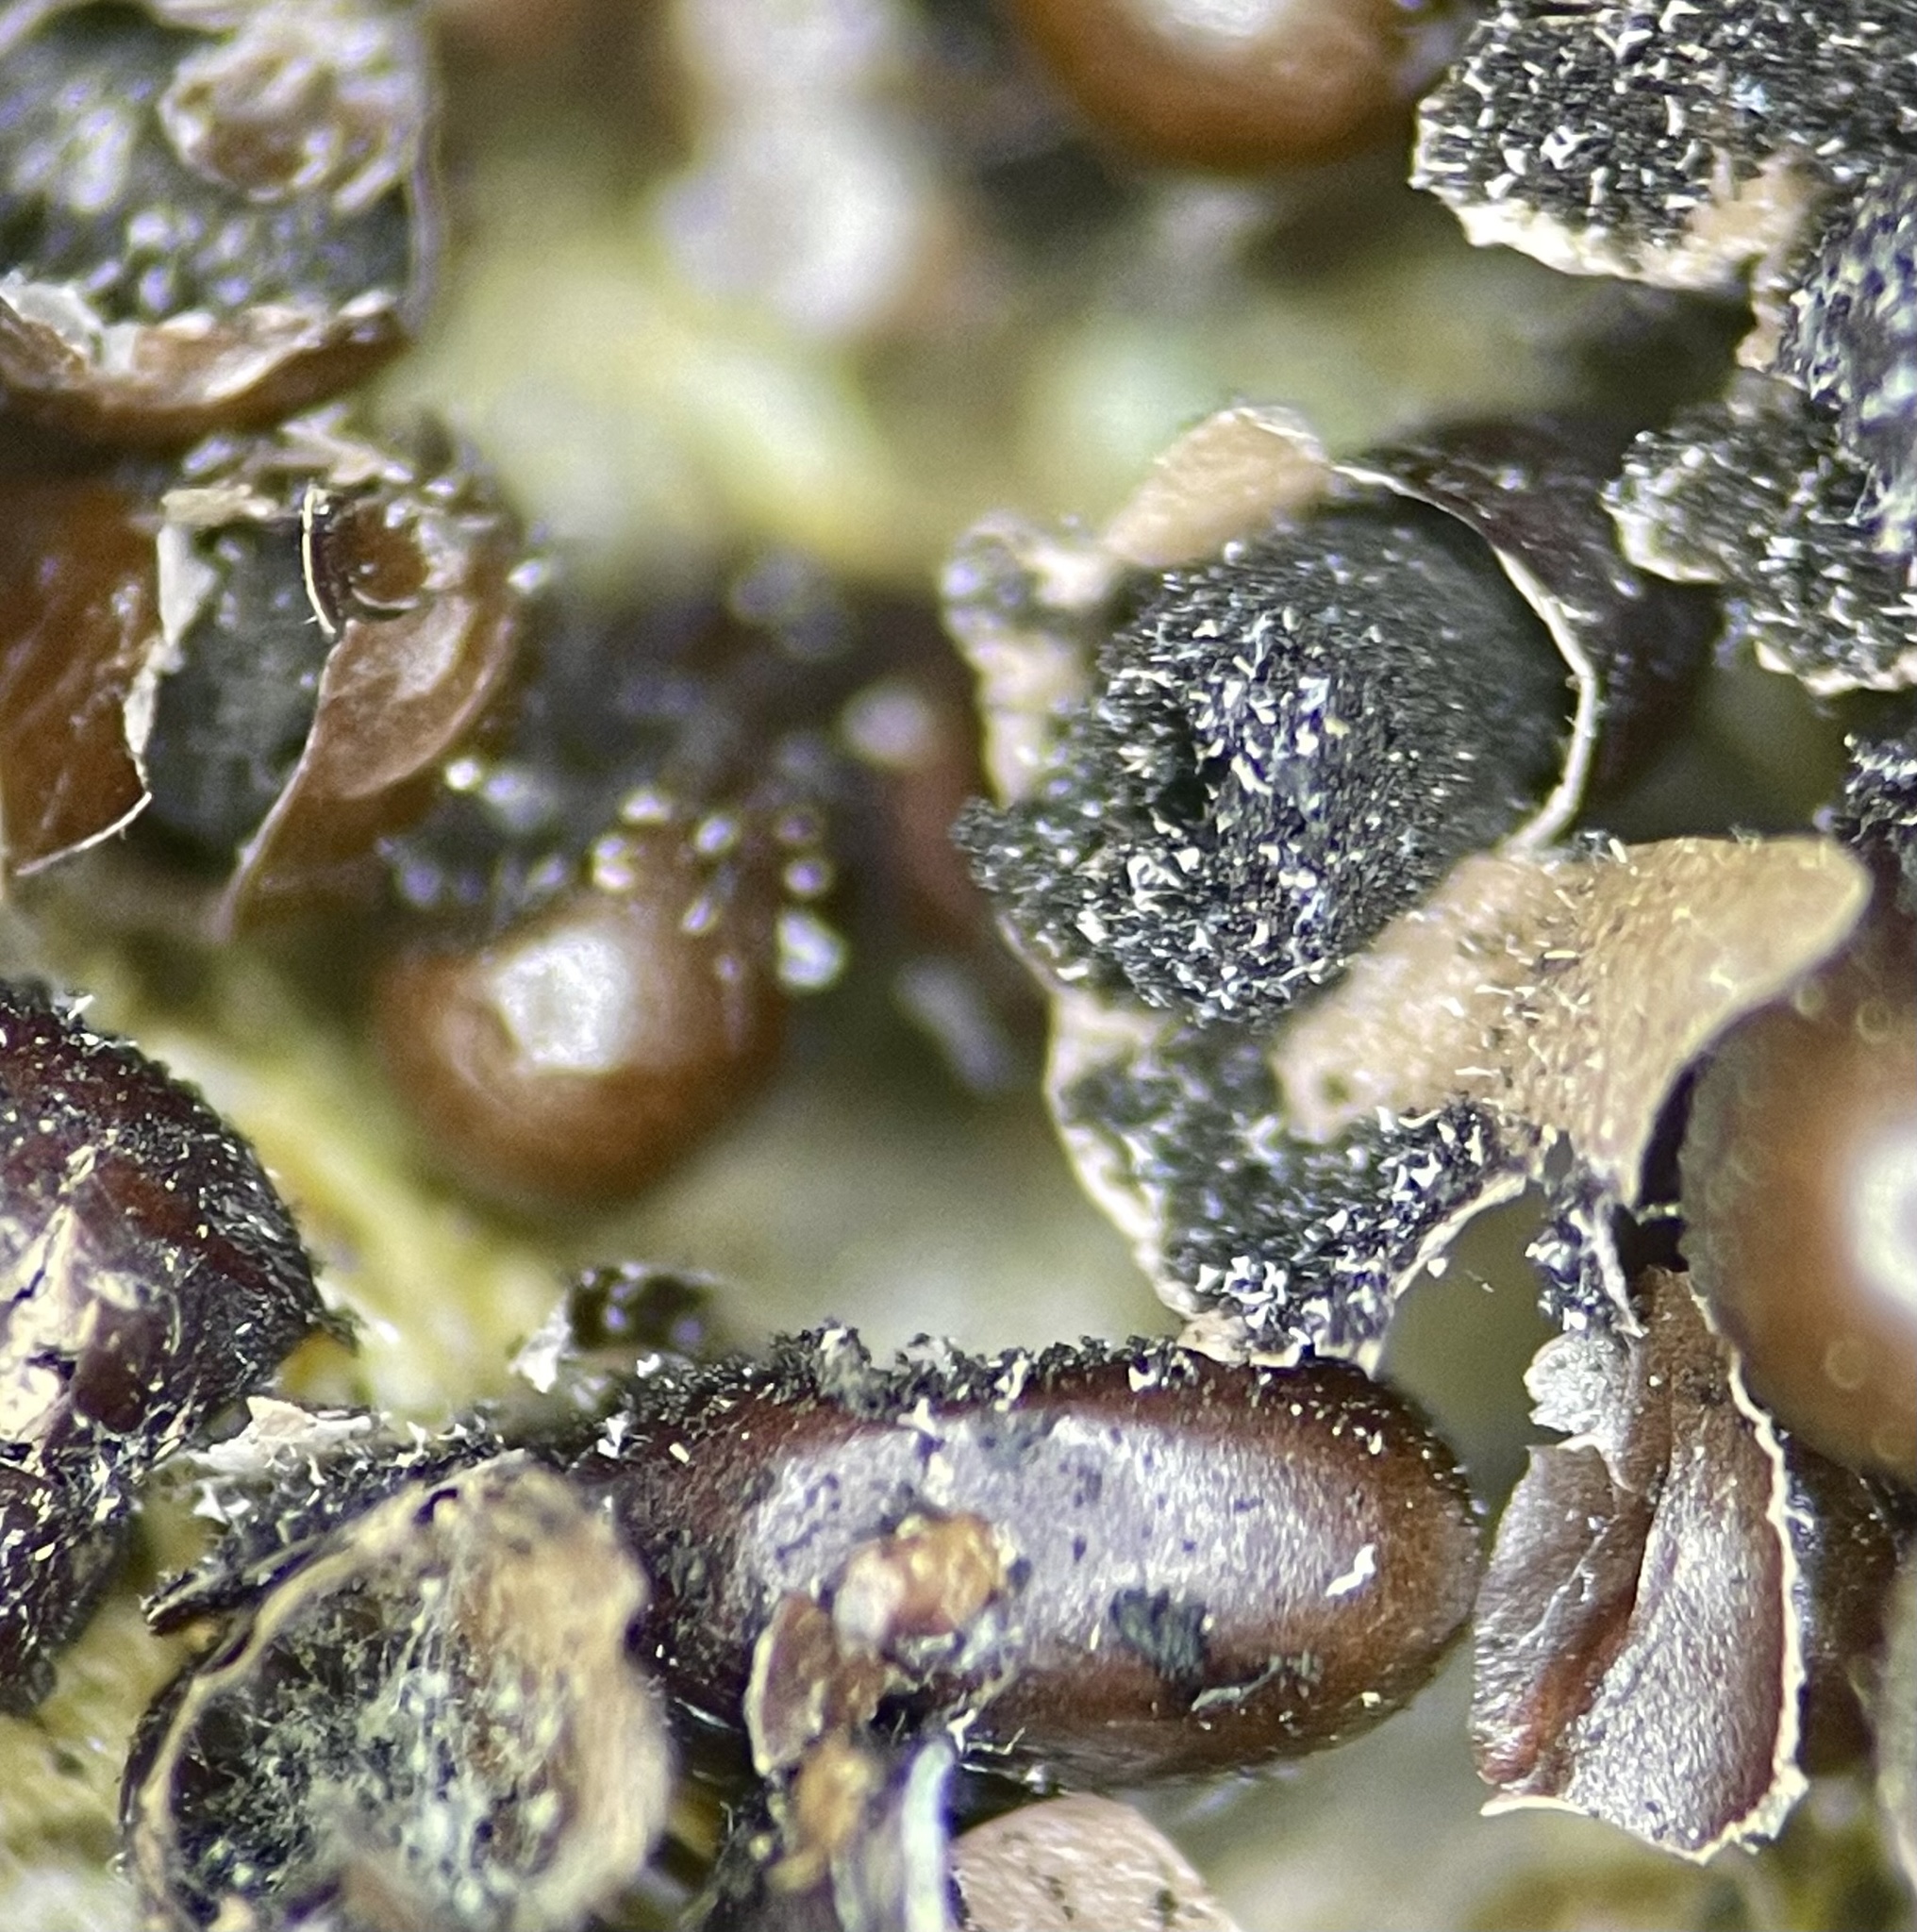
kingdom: Protozoa
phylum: Mycetozoa
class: Myxomycetes
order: Physarales
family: Physaraceae
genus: Leocarpus
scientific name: Leocarpus fragilis
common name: Insect-egg slime
